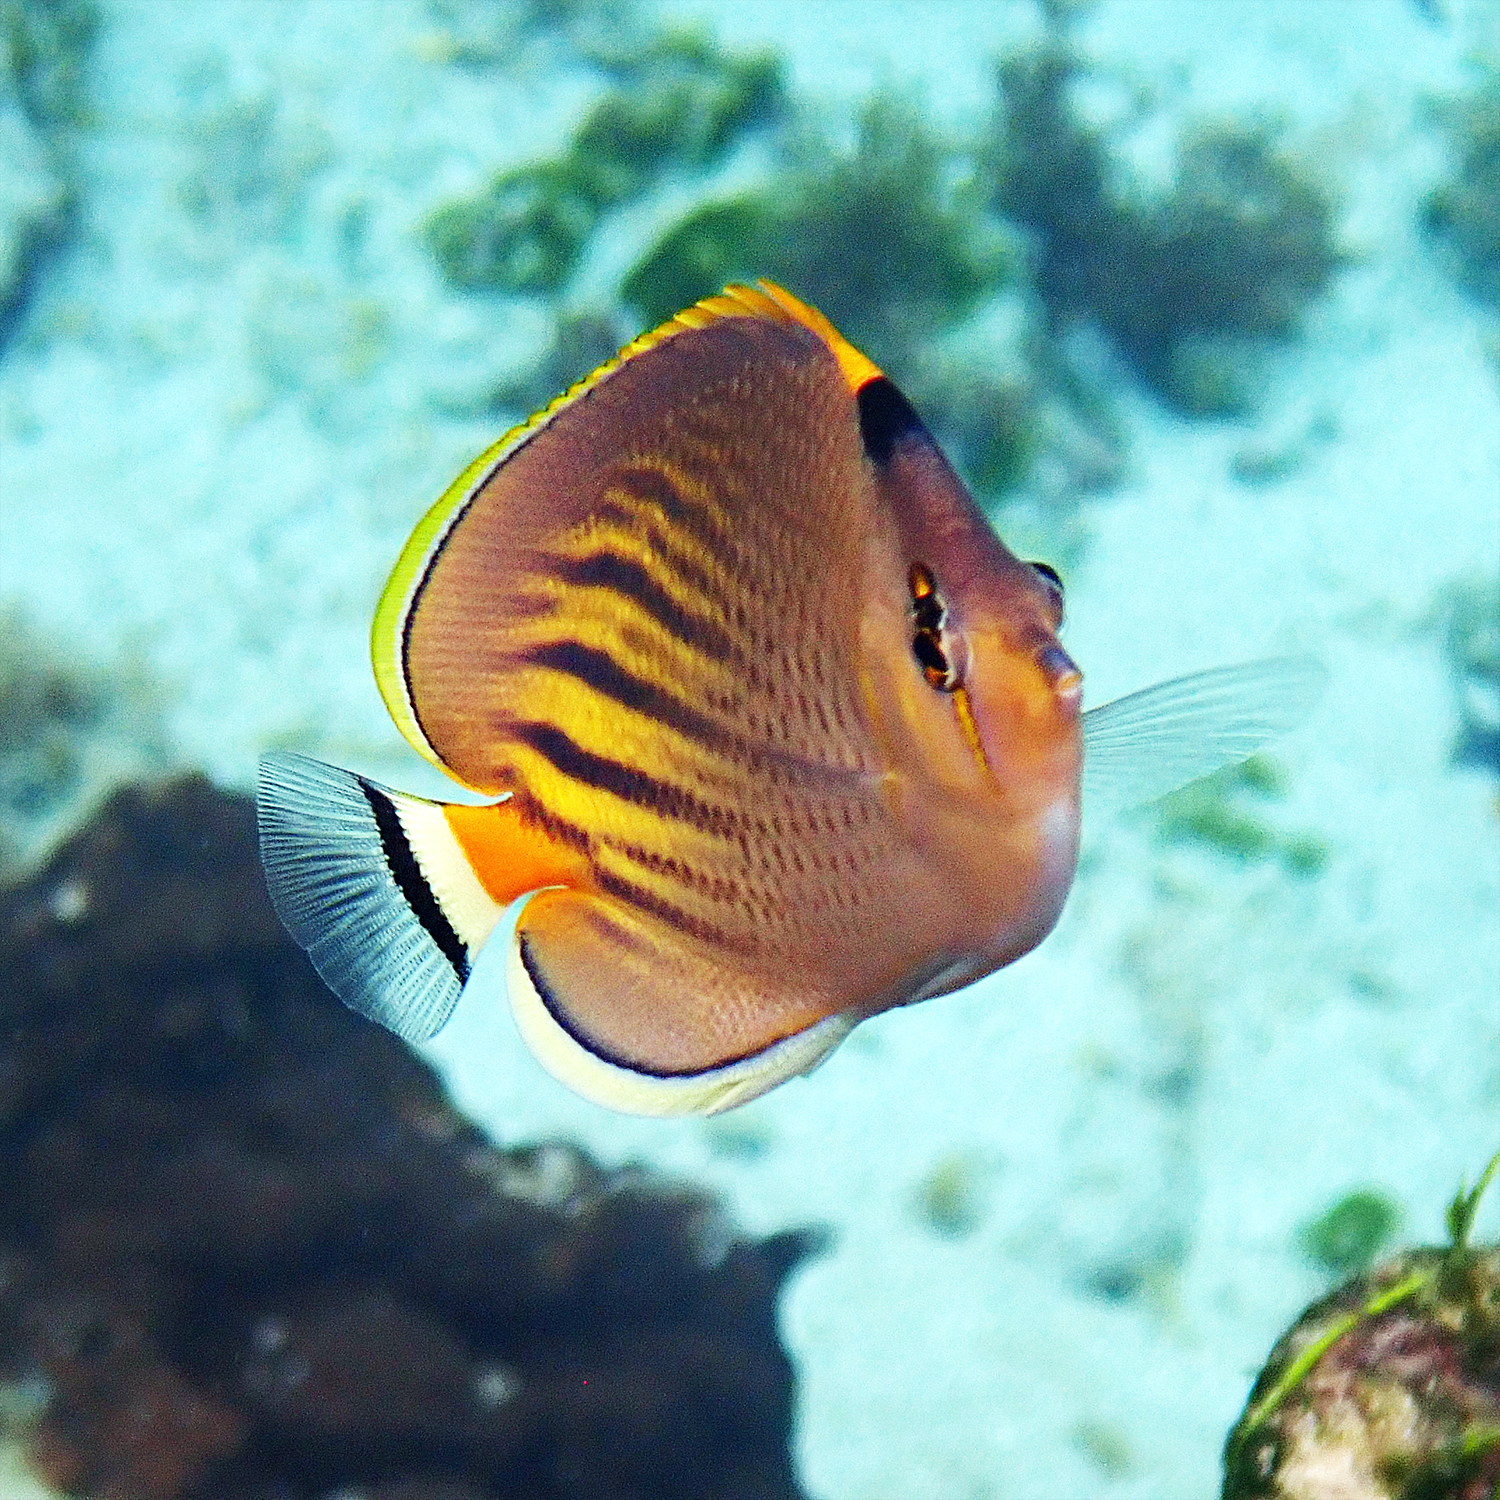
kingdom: Animalia
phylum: Chordata
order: Perciformes
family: Chaetodontidae
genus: Chaetodon
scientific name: Chaetodon pelewensis
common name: Dot-and-dash butterflyfish
